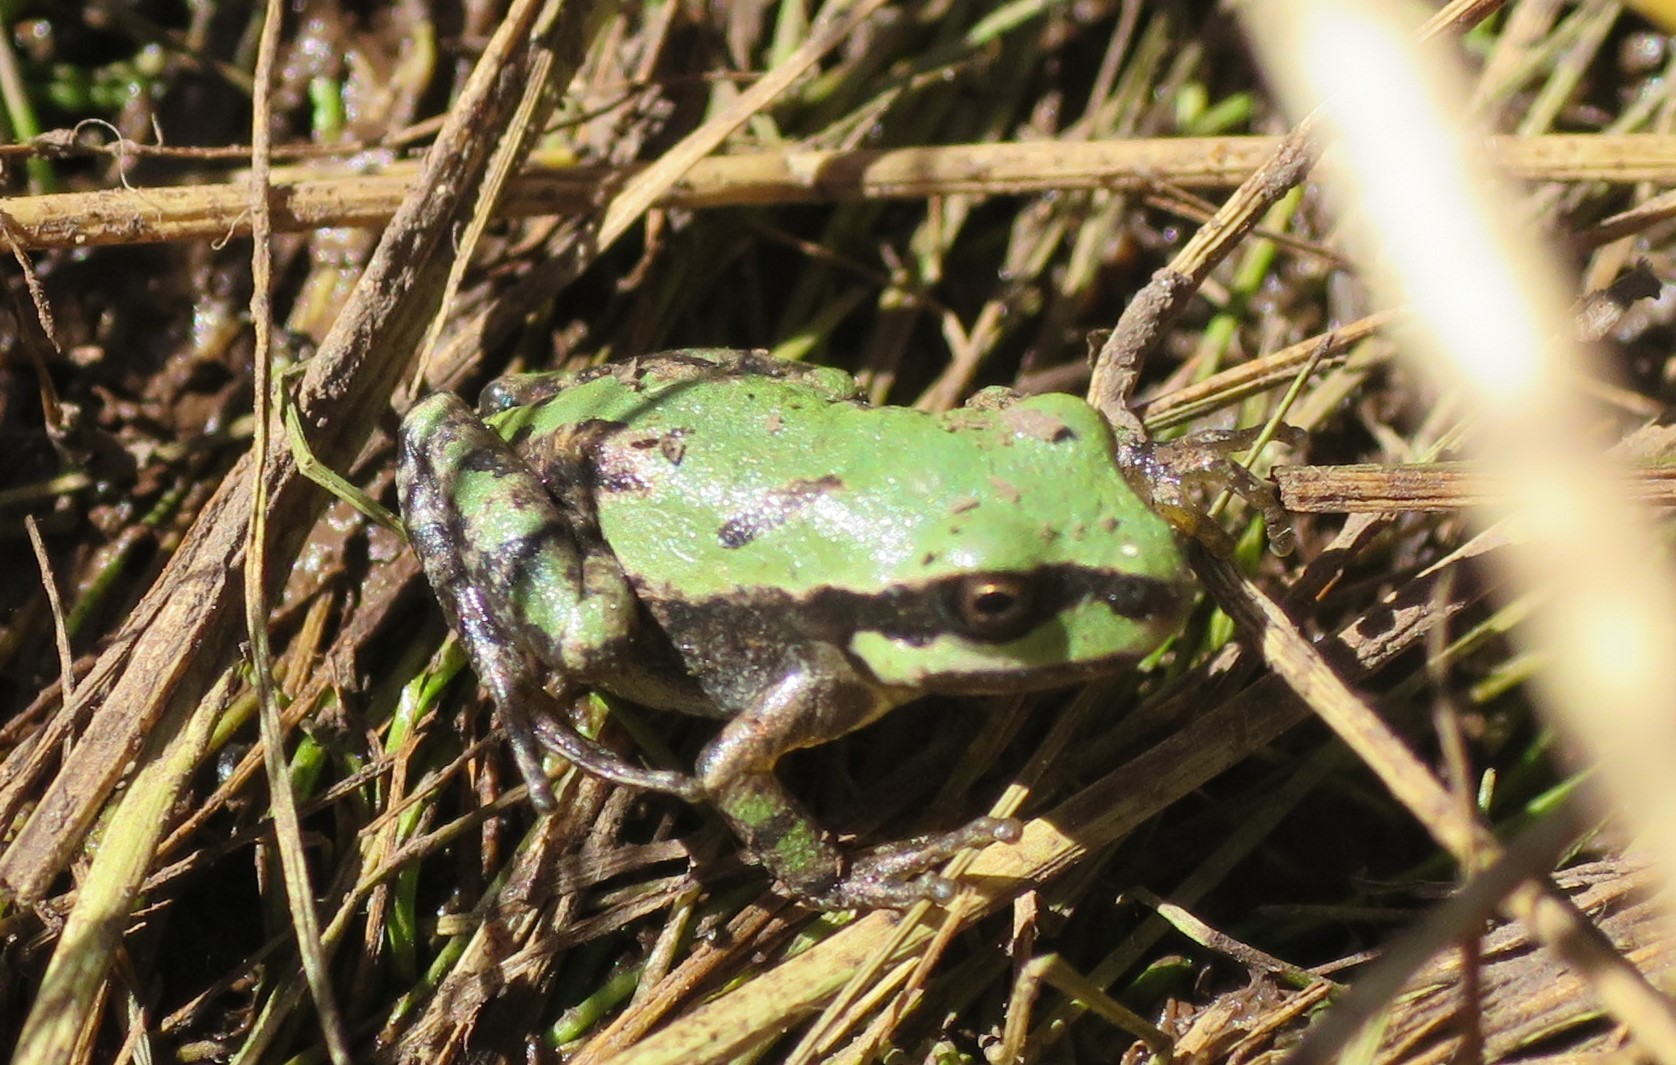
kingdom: Animalia
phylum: Chordata
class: Amphibia
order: Anura
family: Hylidae
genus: Dryophytes
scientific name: Dryophytes wrightorum
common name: Arizona treefrog
